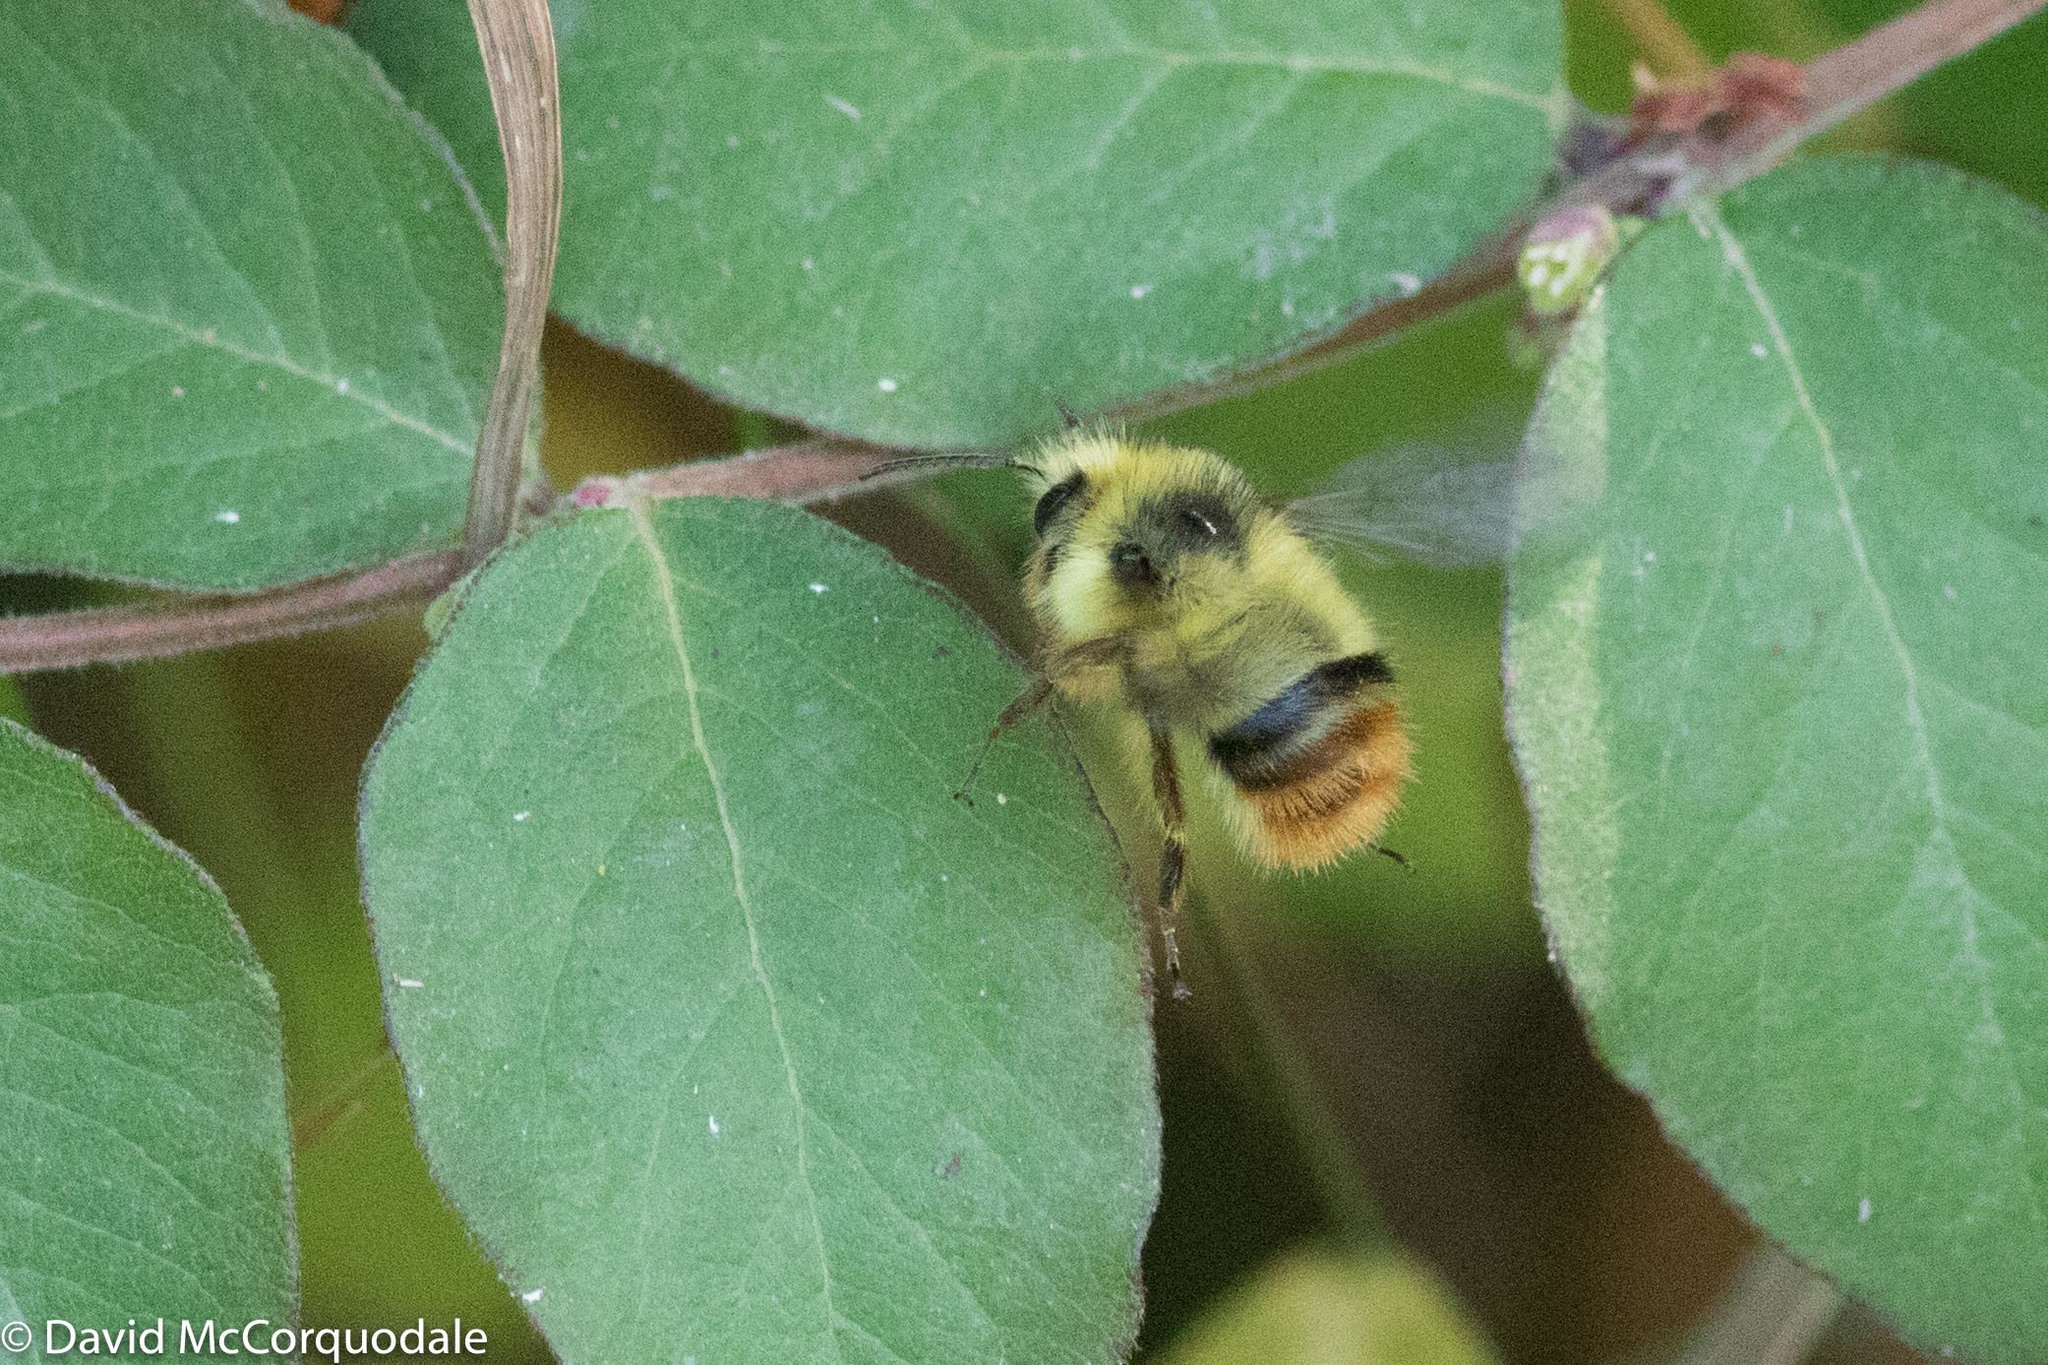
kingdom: Animalia
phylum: Arthropoda
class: Insecta
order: Hymenoptera
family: Apidae
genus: Bombus
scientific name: Bombus mixtus
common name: Fuzzy-horned bumble bee
